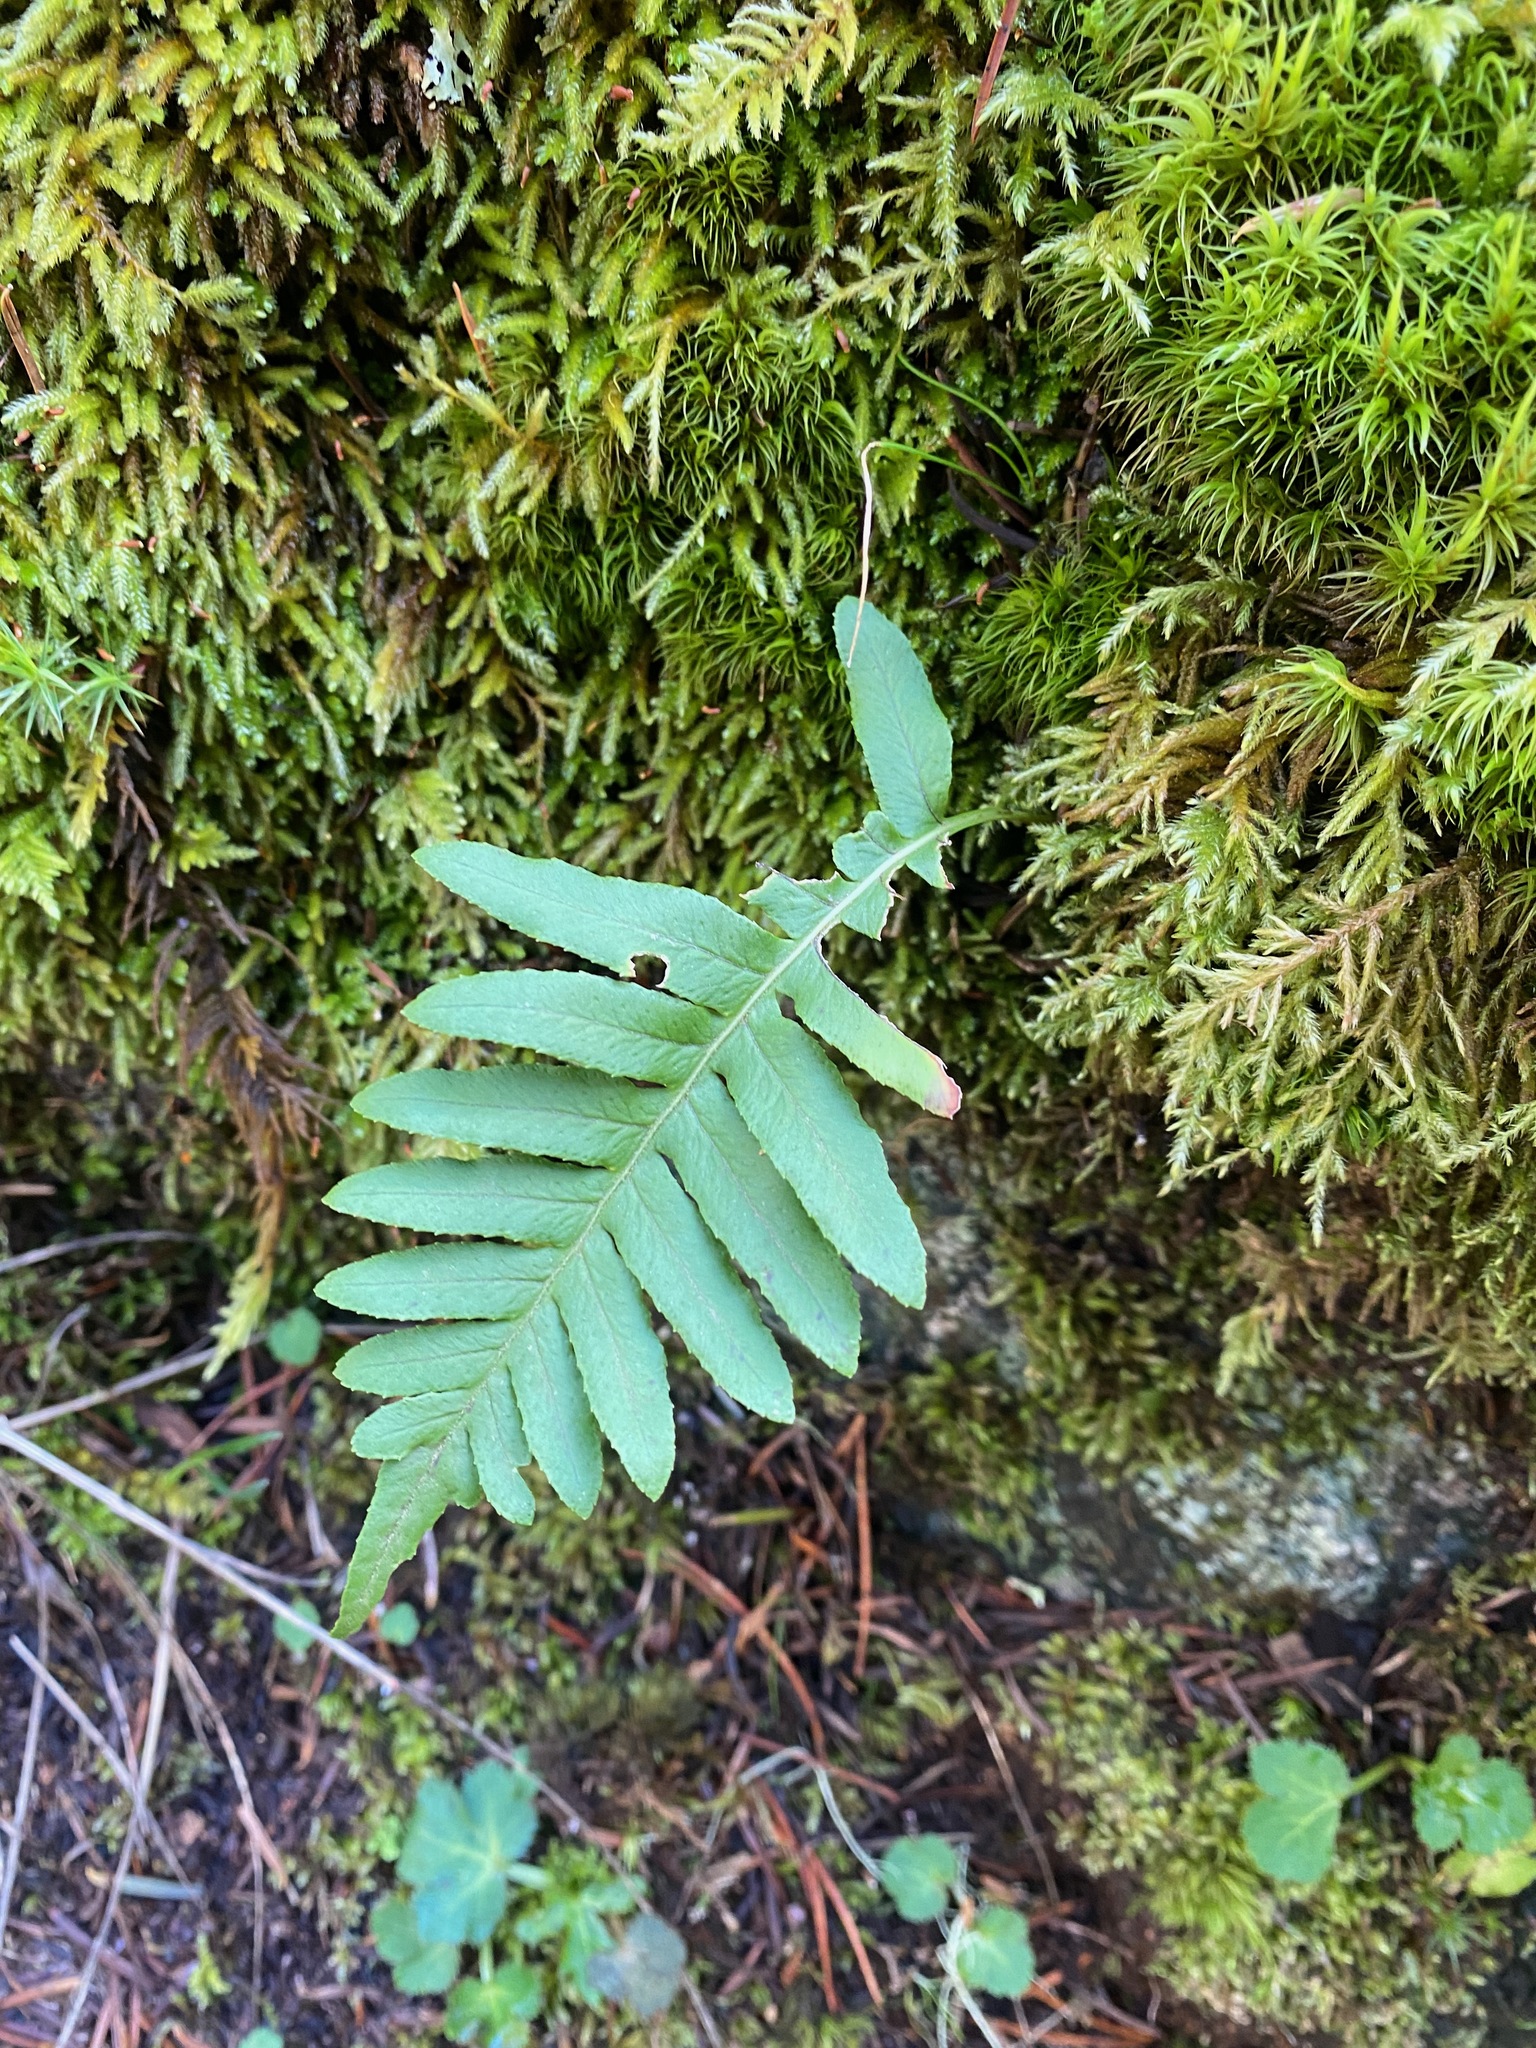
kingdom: Plantae
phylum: Tracheophyta
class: Polypodiopsida
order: Polypodiales
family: Polypodiaceae
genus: Polypodium
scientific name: Polypodium glycyrrhiza
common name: Licorice fern
